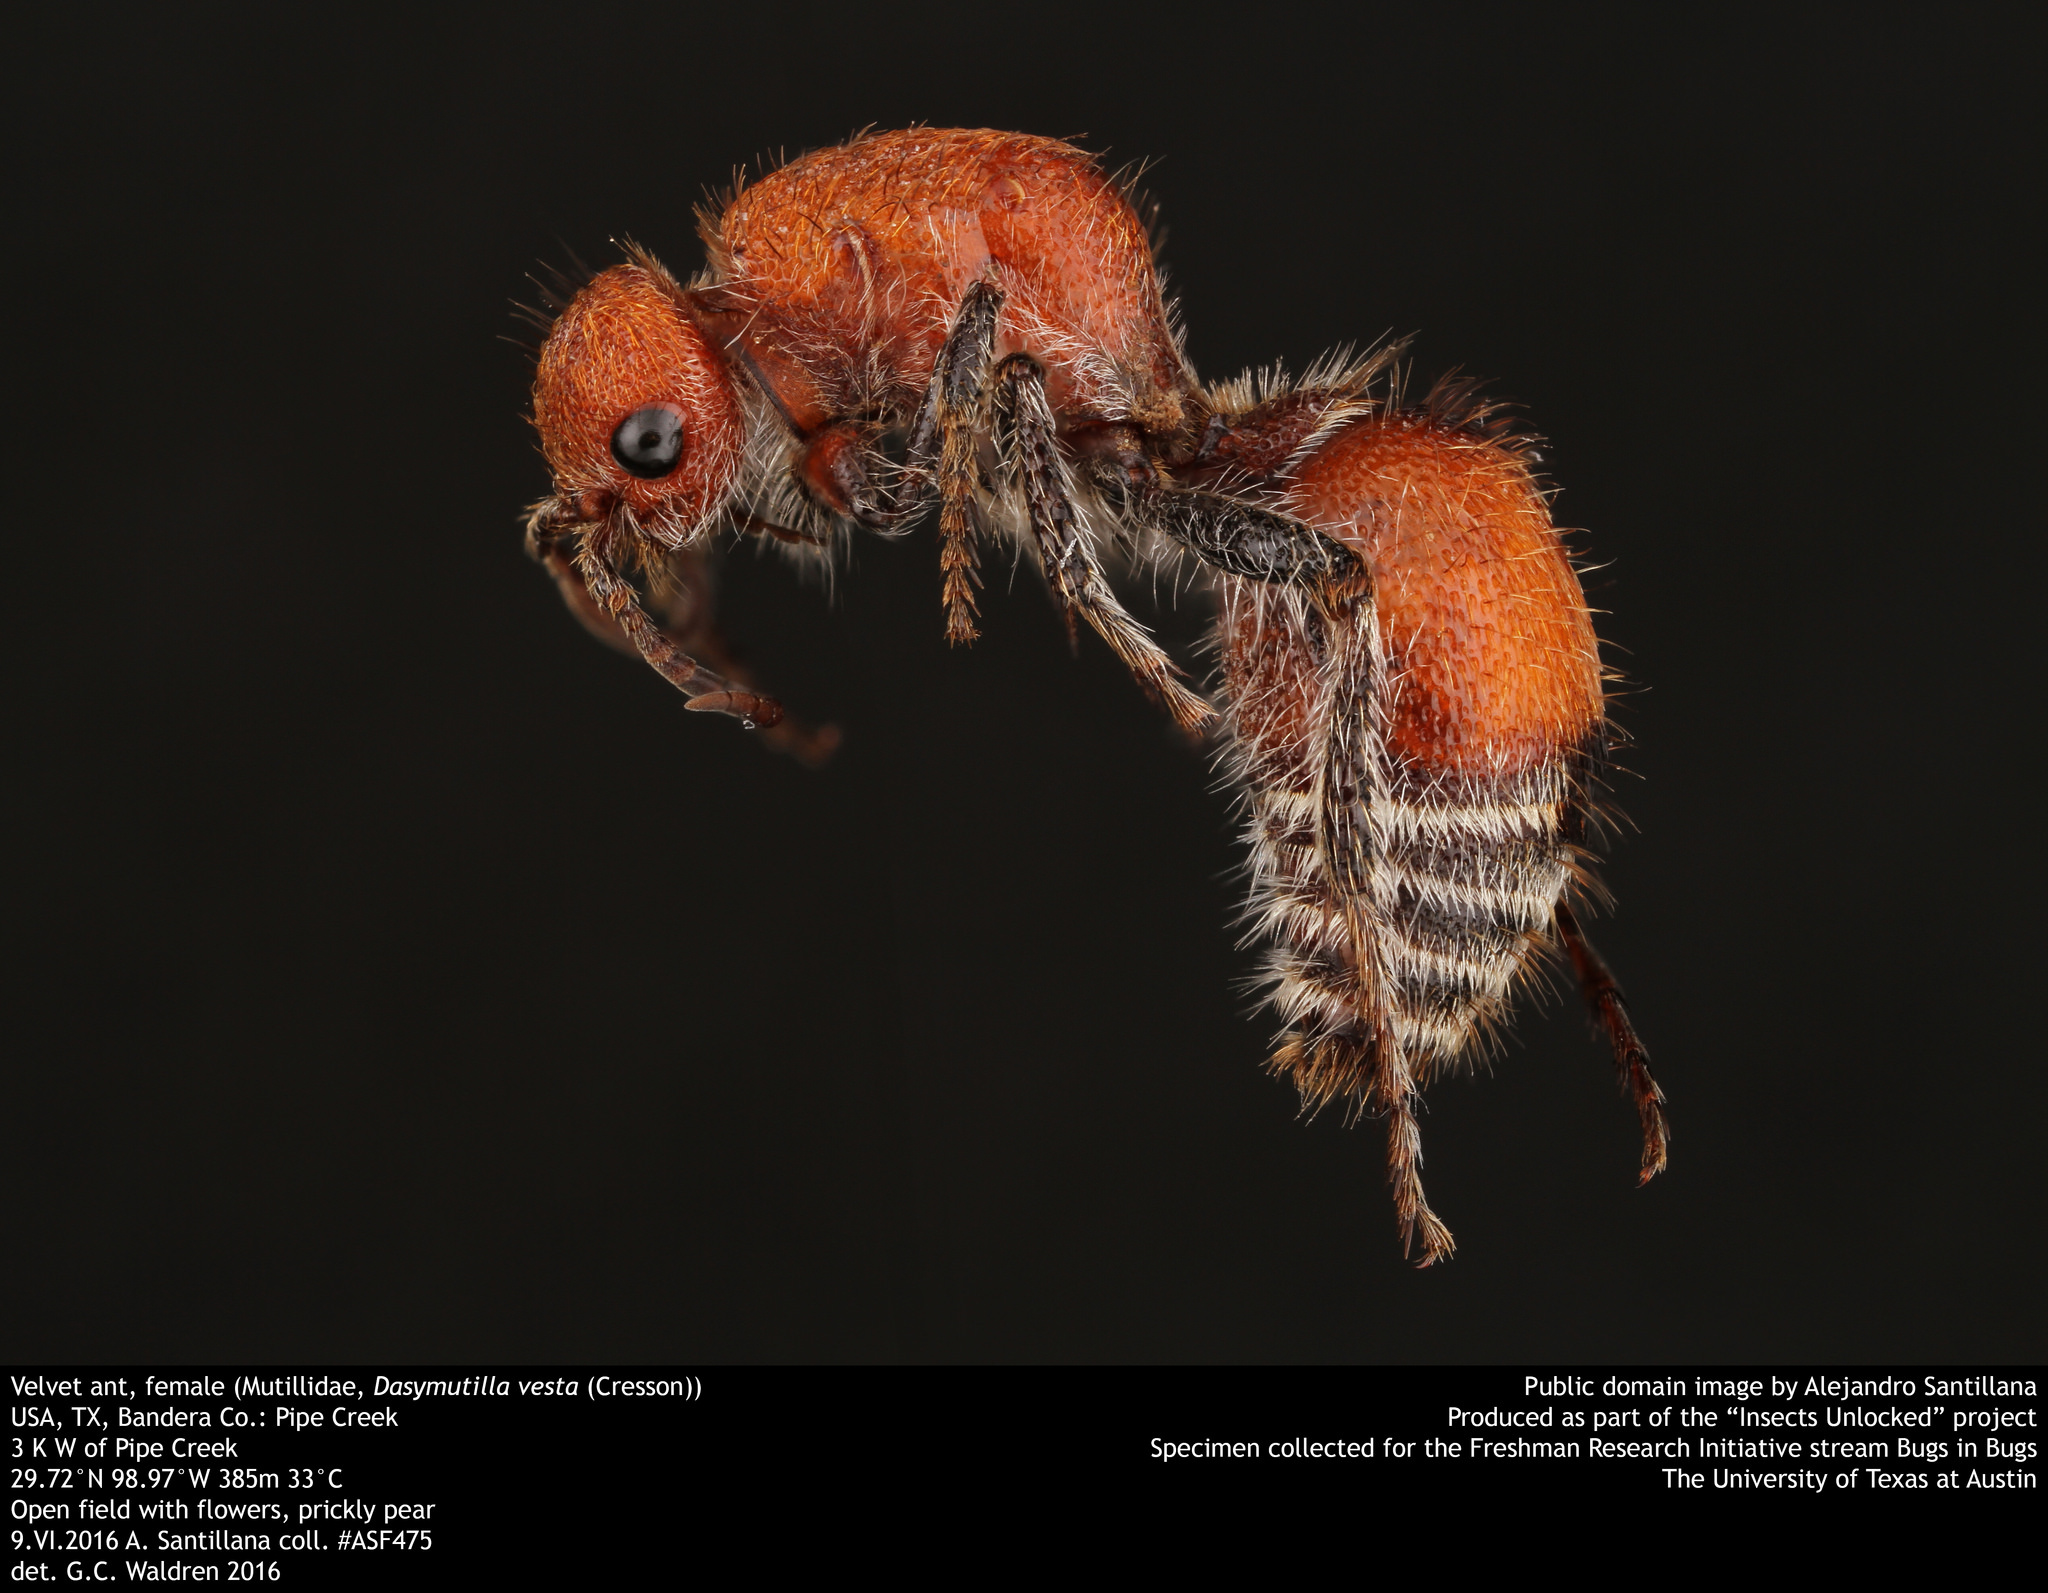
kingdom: Animalia
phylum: Arthropoda
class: Insecta
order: Hymenoptera
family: Mutillidae
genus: Dasymutilla
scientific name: Dasymutilla
